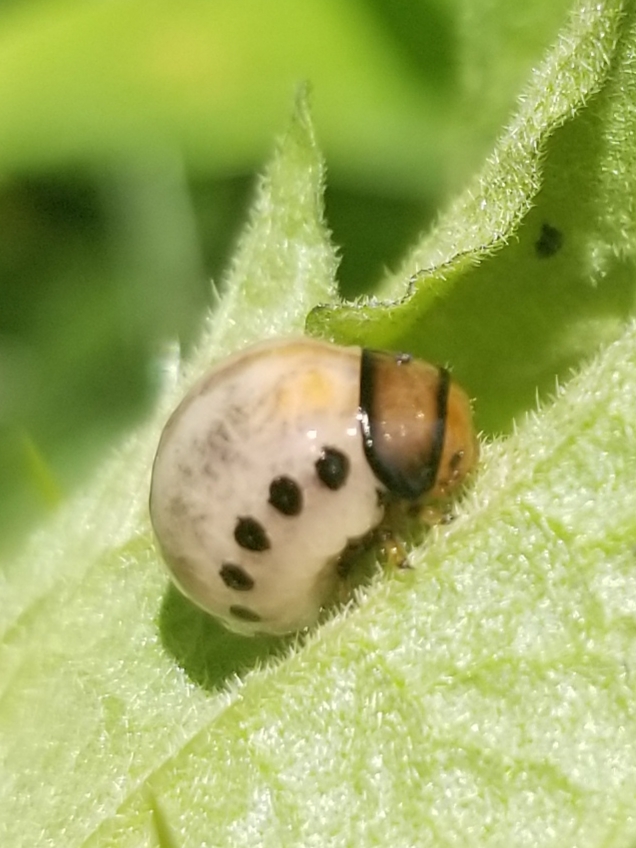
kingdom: Animalia
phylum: Arthropoda
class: Insecta
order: Coleoptera
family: Chrysomelidae
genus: Leptinotarsa
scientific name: Leptinotarsa juncta
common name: False potato beetle
